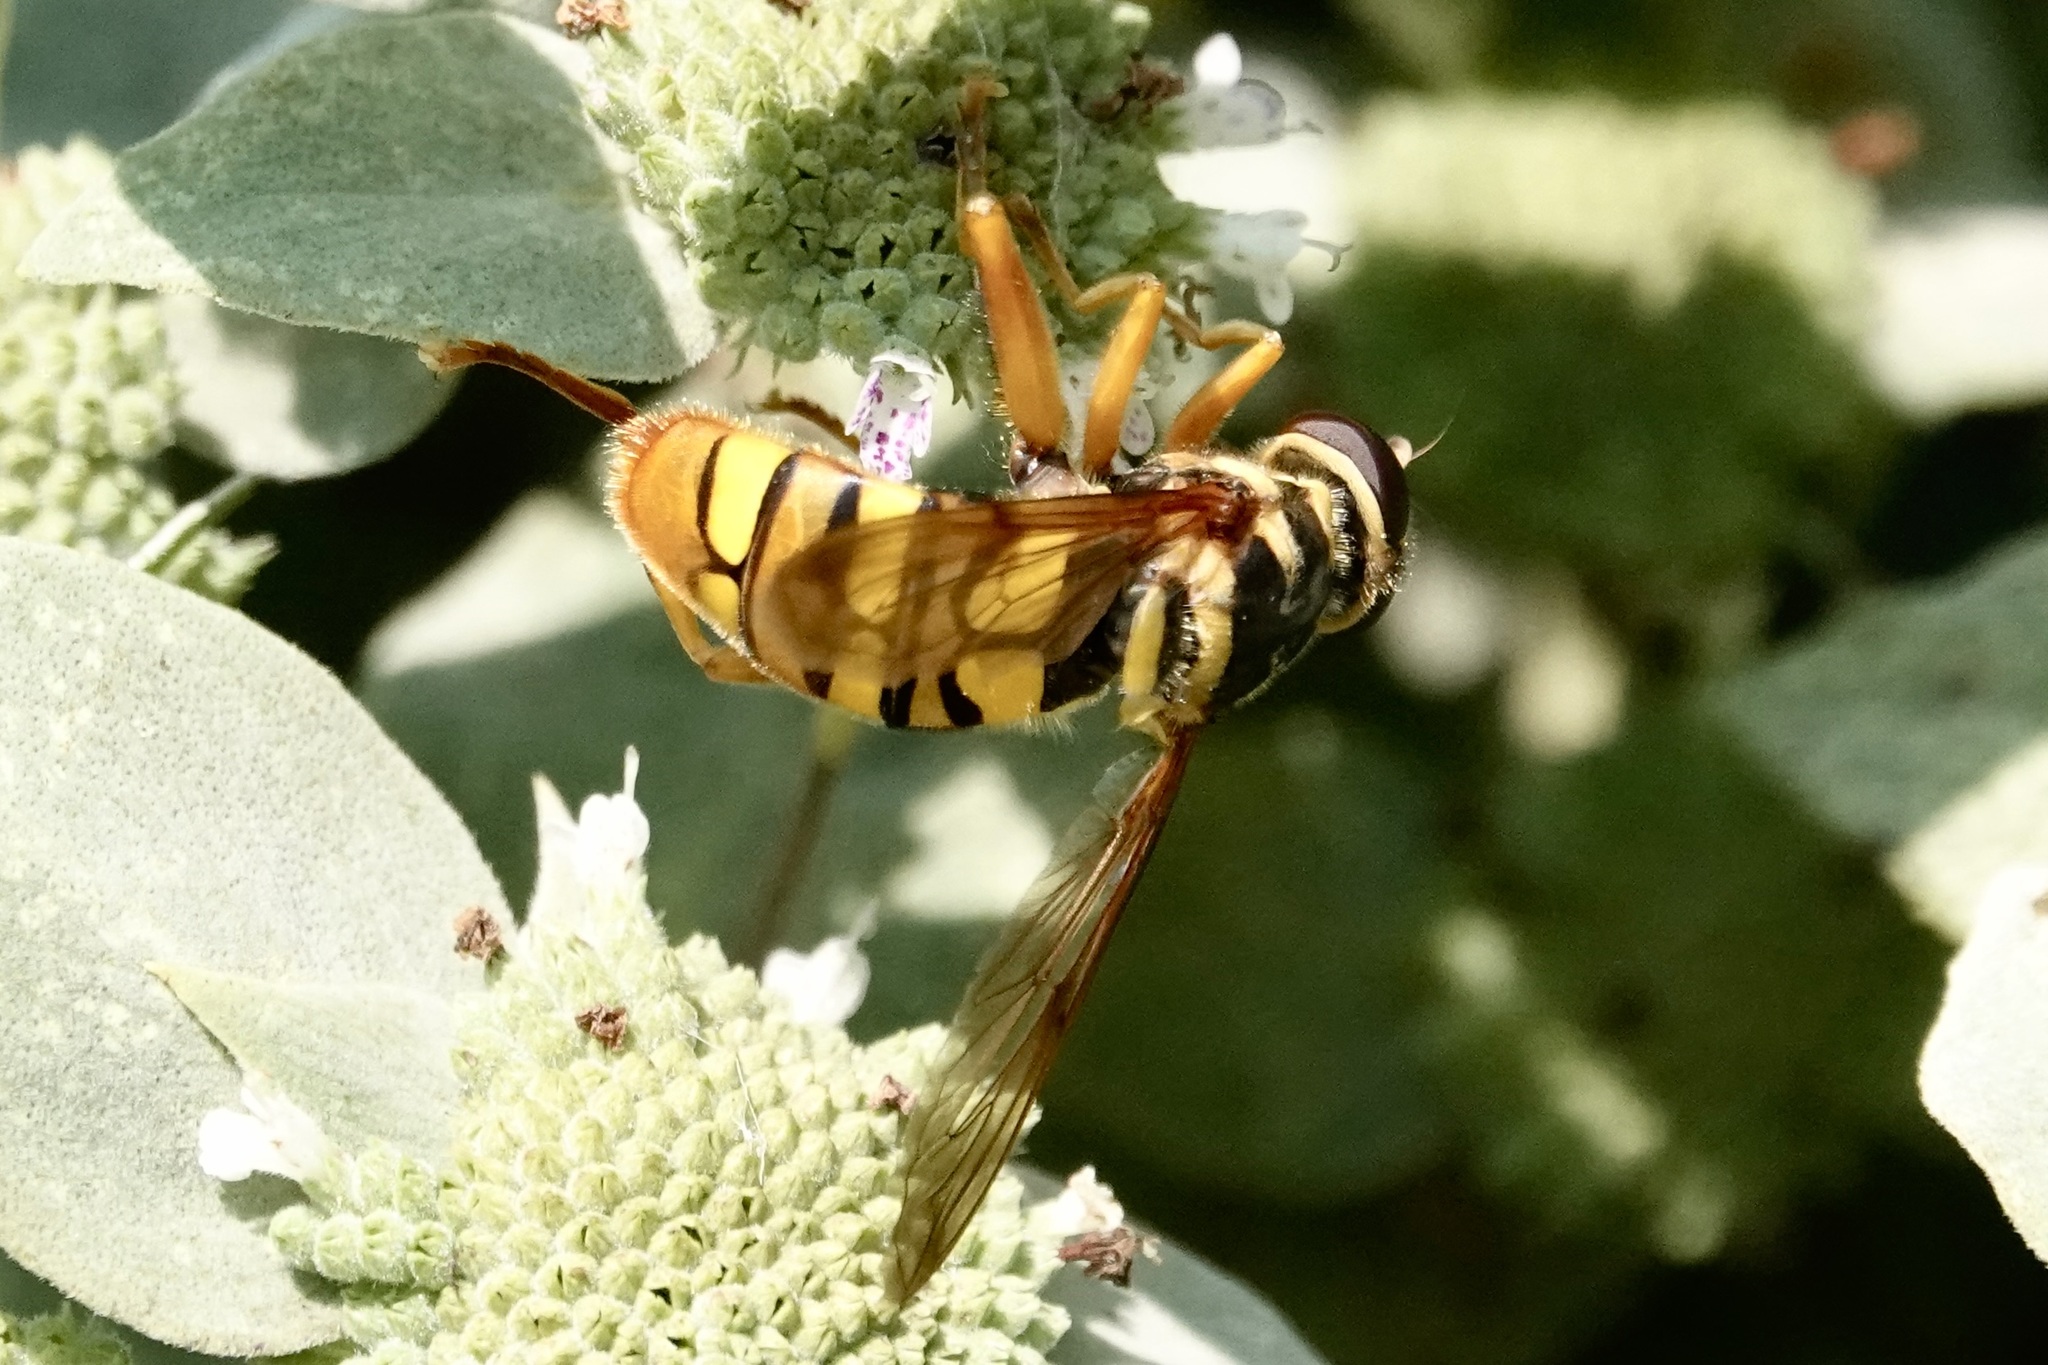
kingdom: Animalia
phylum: Arthropoda
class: Insecta
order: Diptera
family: Syrphidae
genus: Milesia
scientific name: Milesia virginiensis
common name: Virginia giant
